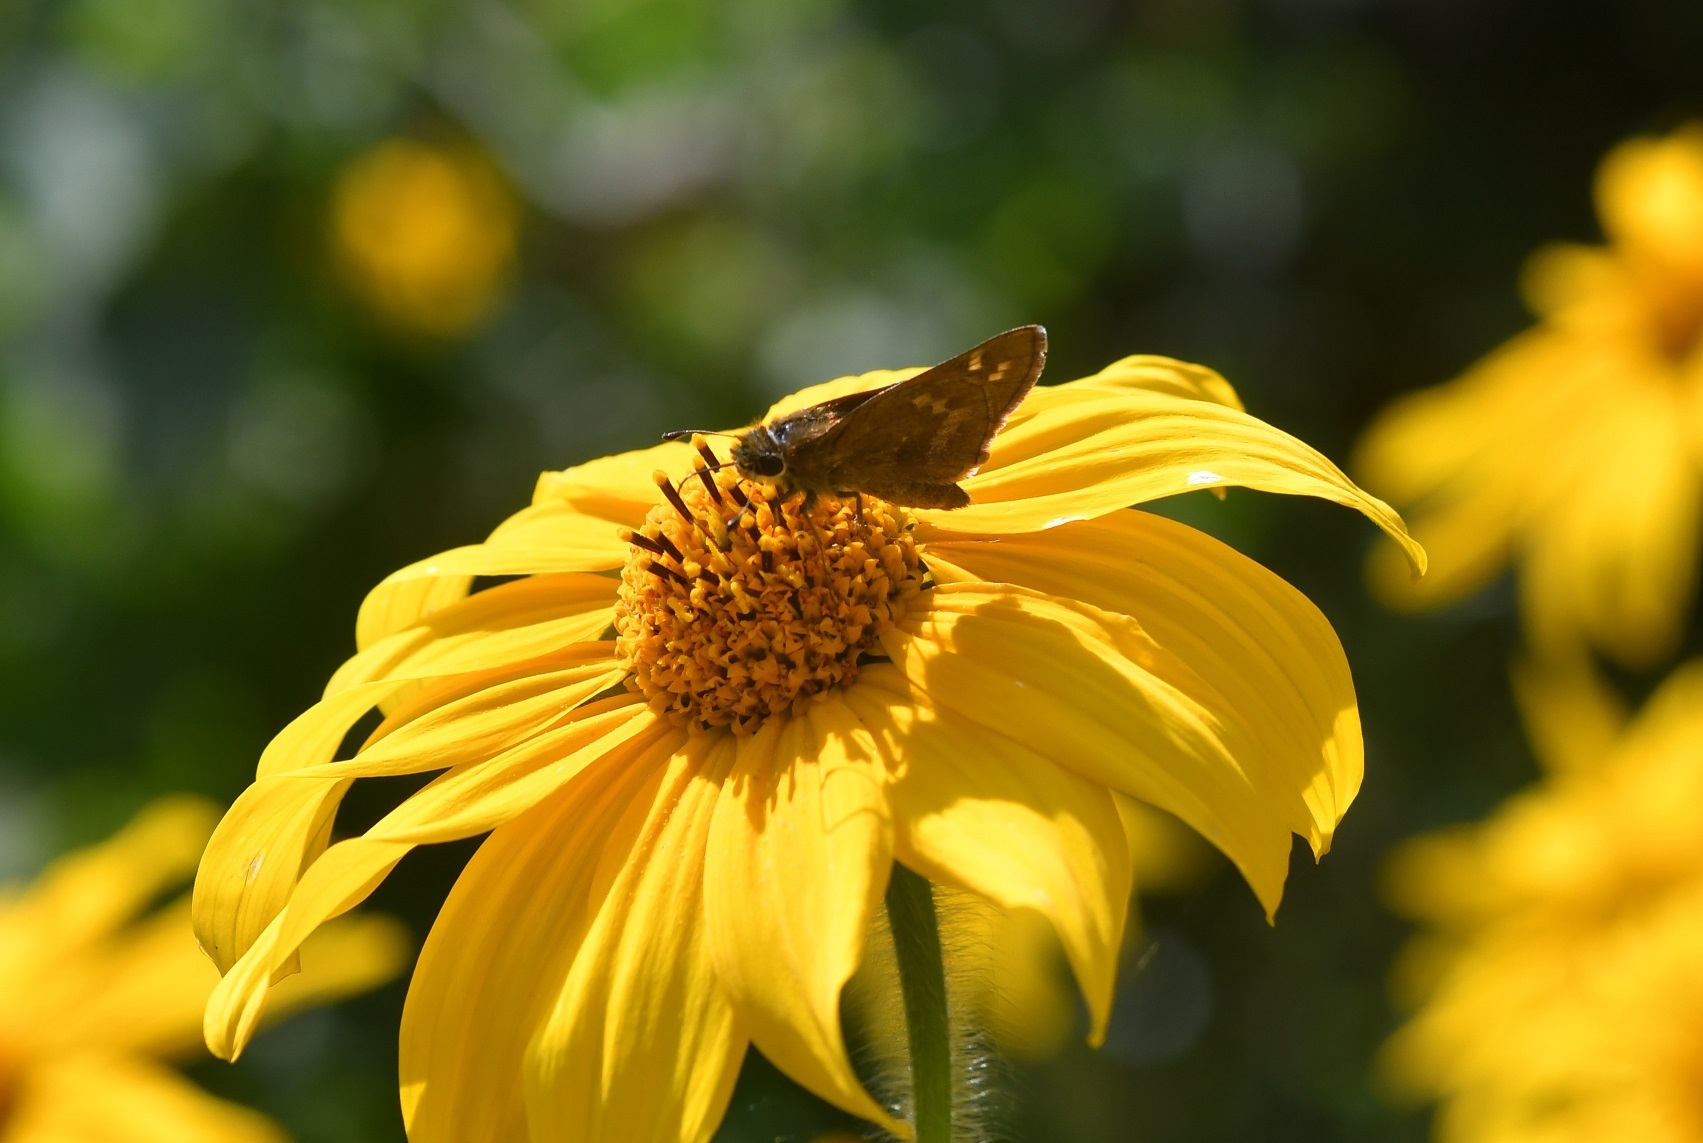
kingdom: Animalia
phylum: Arthropoda
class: Insecta
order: Lepidoptera
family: Hesperiidae
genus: Atalopedes
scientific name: Atalopedes
